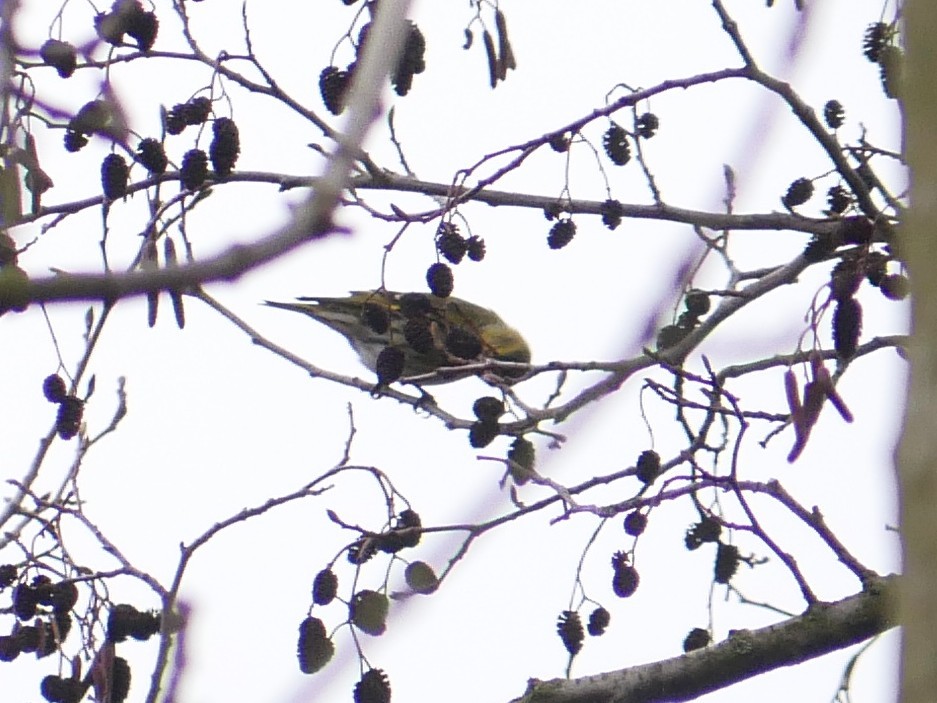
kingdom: Animalia
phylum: Chordata
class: Aves
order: Passeriformes
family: Fringillidae
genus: Spinus
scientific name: Spinus spinus
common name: Eurasian siskin
